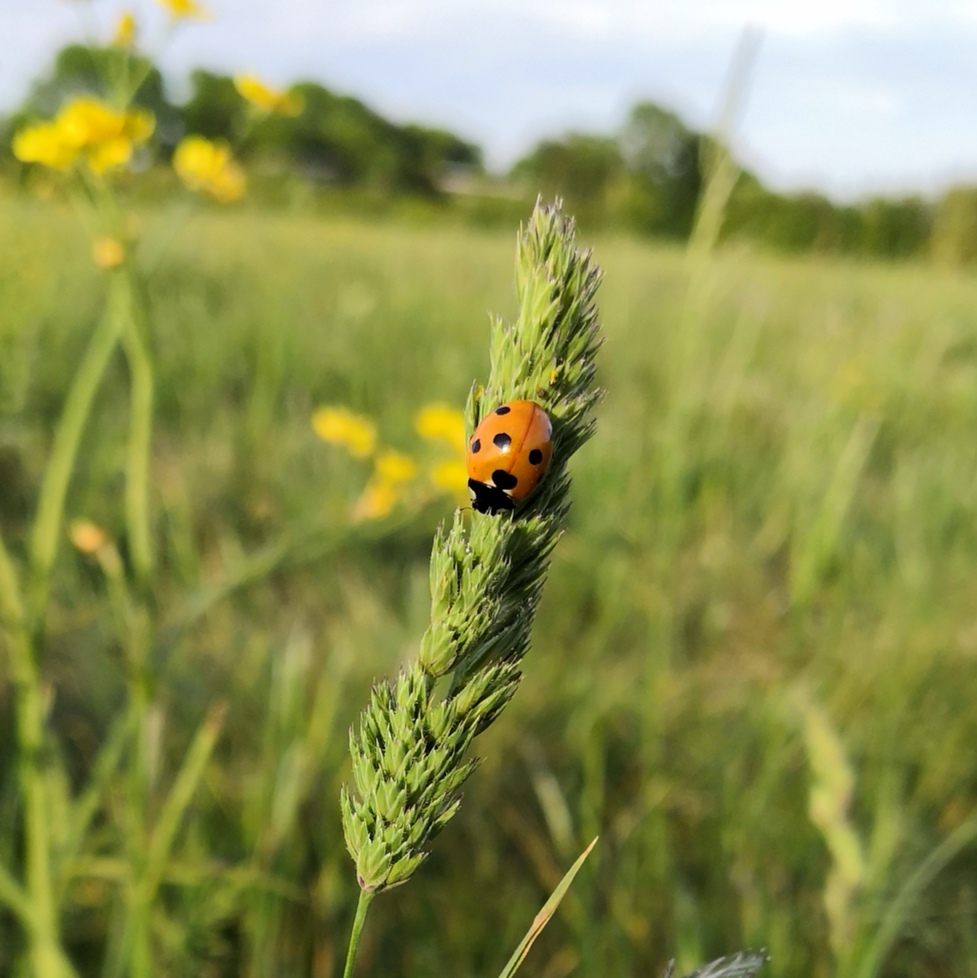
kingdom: Animalia
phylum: Arthropoda
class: Insecta
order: Coleoptera
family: Coccinellidae
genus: Coccinella
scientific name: Coccinella septempunctata
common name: Sevenspotted lady beetle
